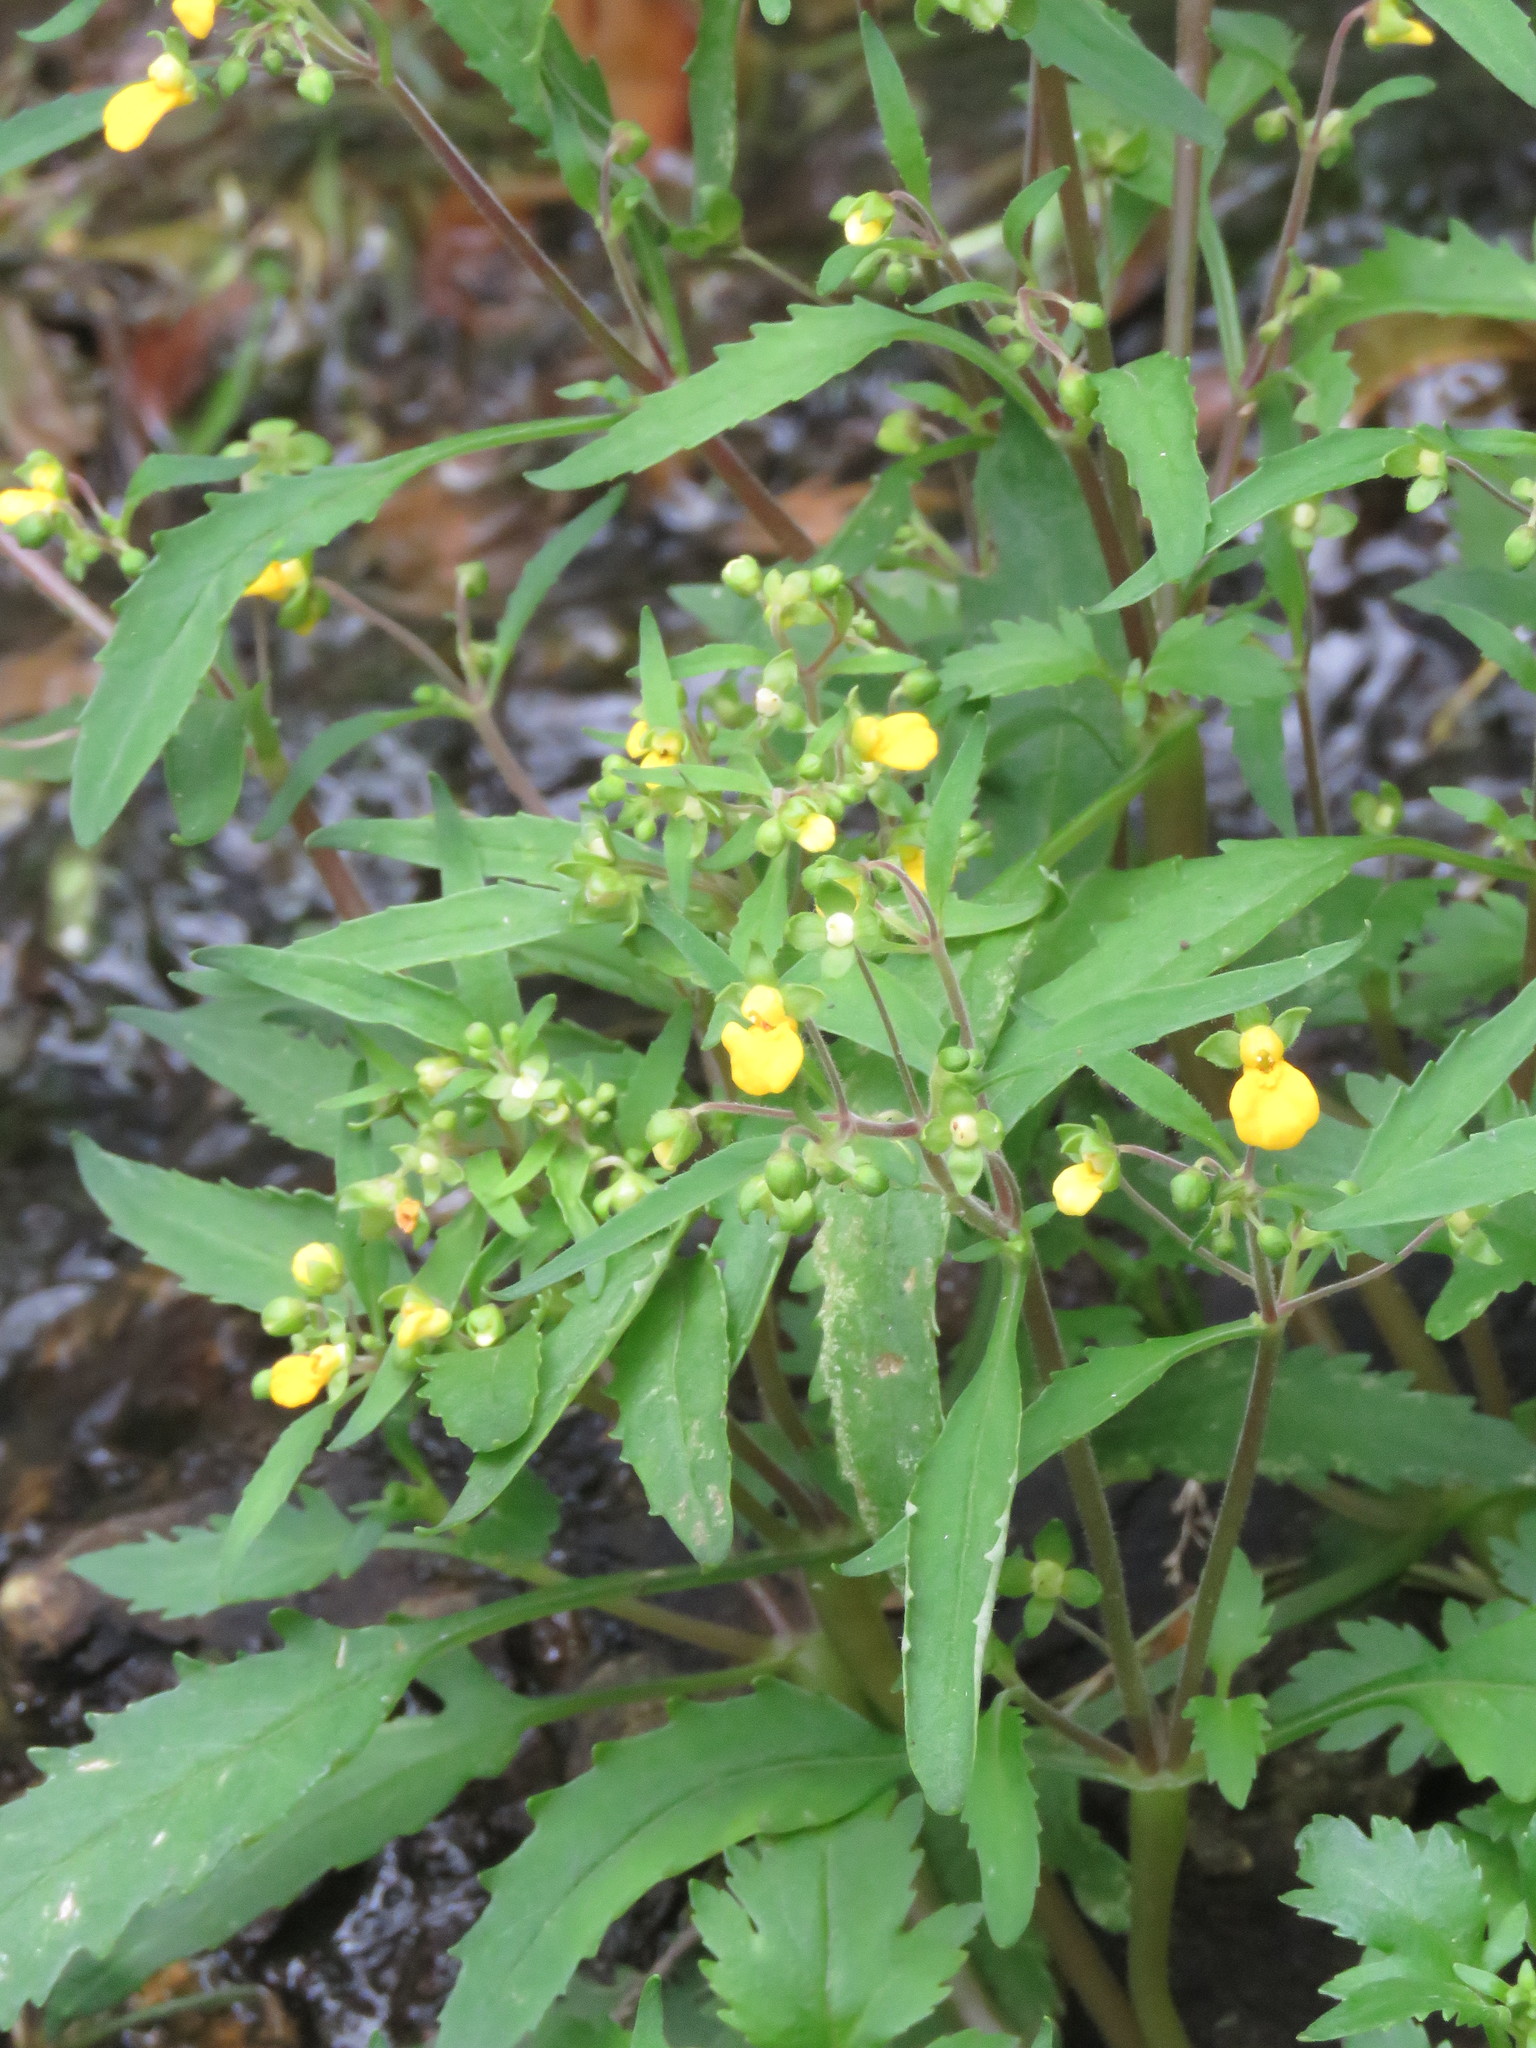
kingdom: Plantae
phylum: Tracheophyta
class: Magnoliopsida
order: Lamiales
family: Calceolariaceae
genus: Calceolaria
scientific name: Calceolaria mexicana
